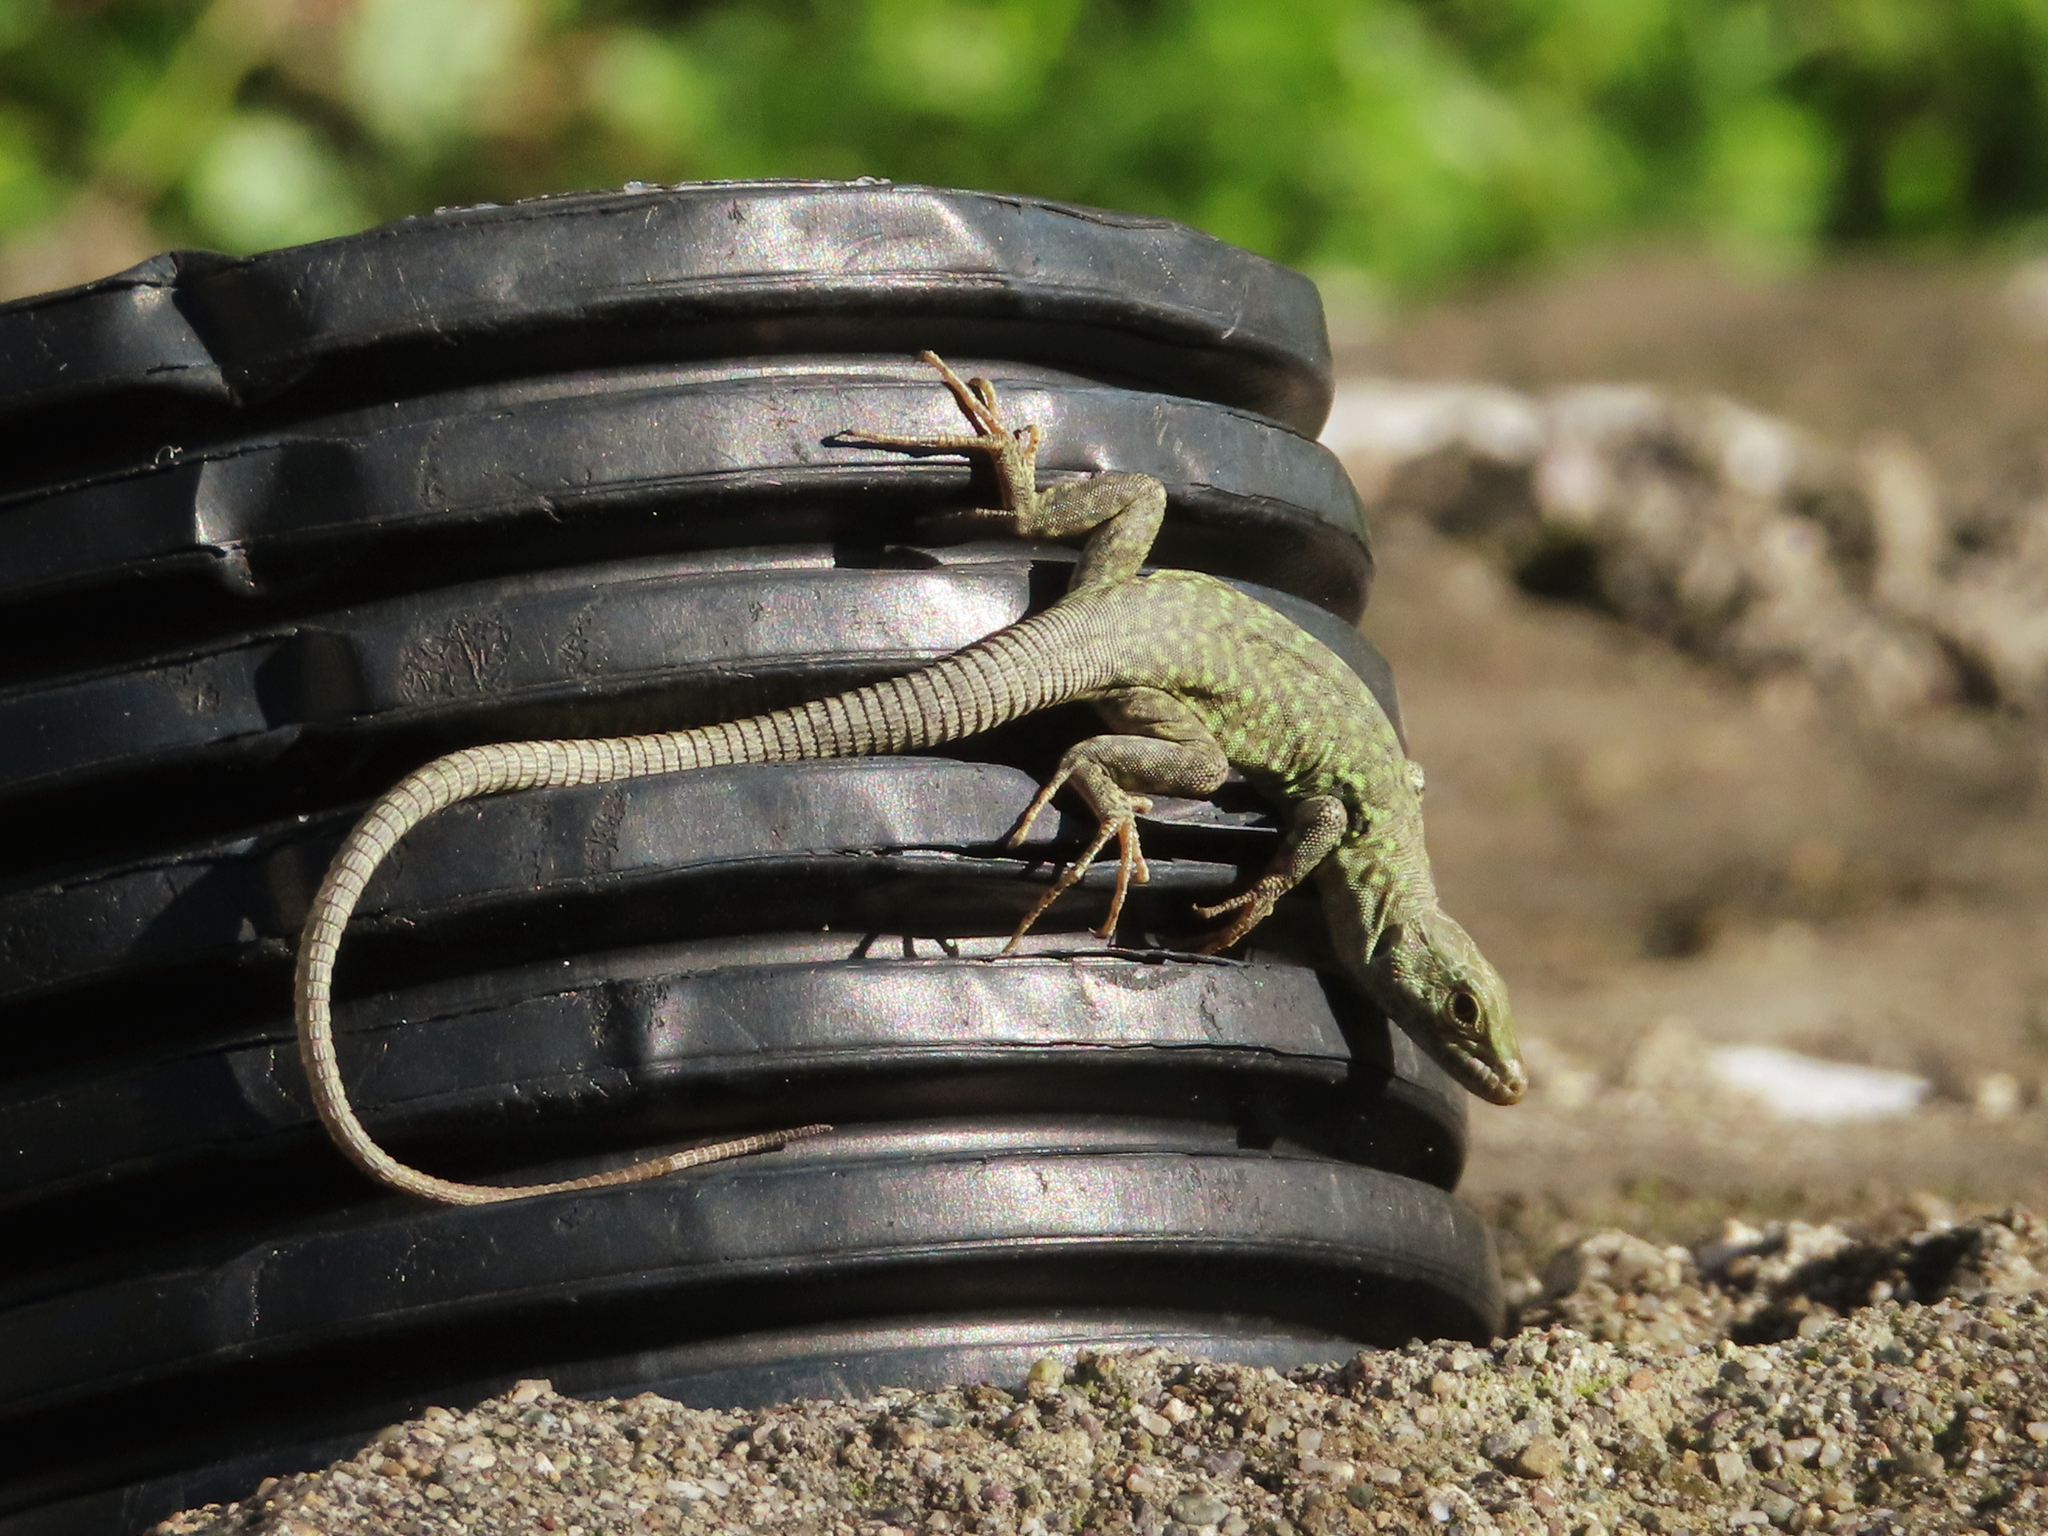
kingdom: Animalia
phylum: Chordata
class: Squamata
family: Lacertidae
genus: Podarcis
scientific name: Podarcis siculus
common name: Italian wall lizard
